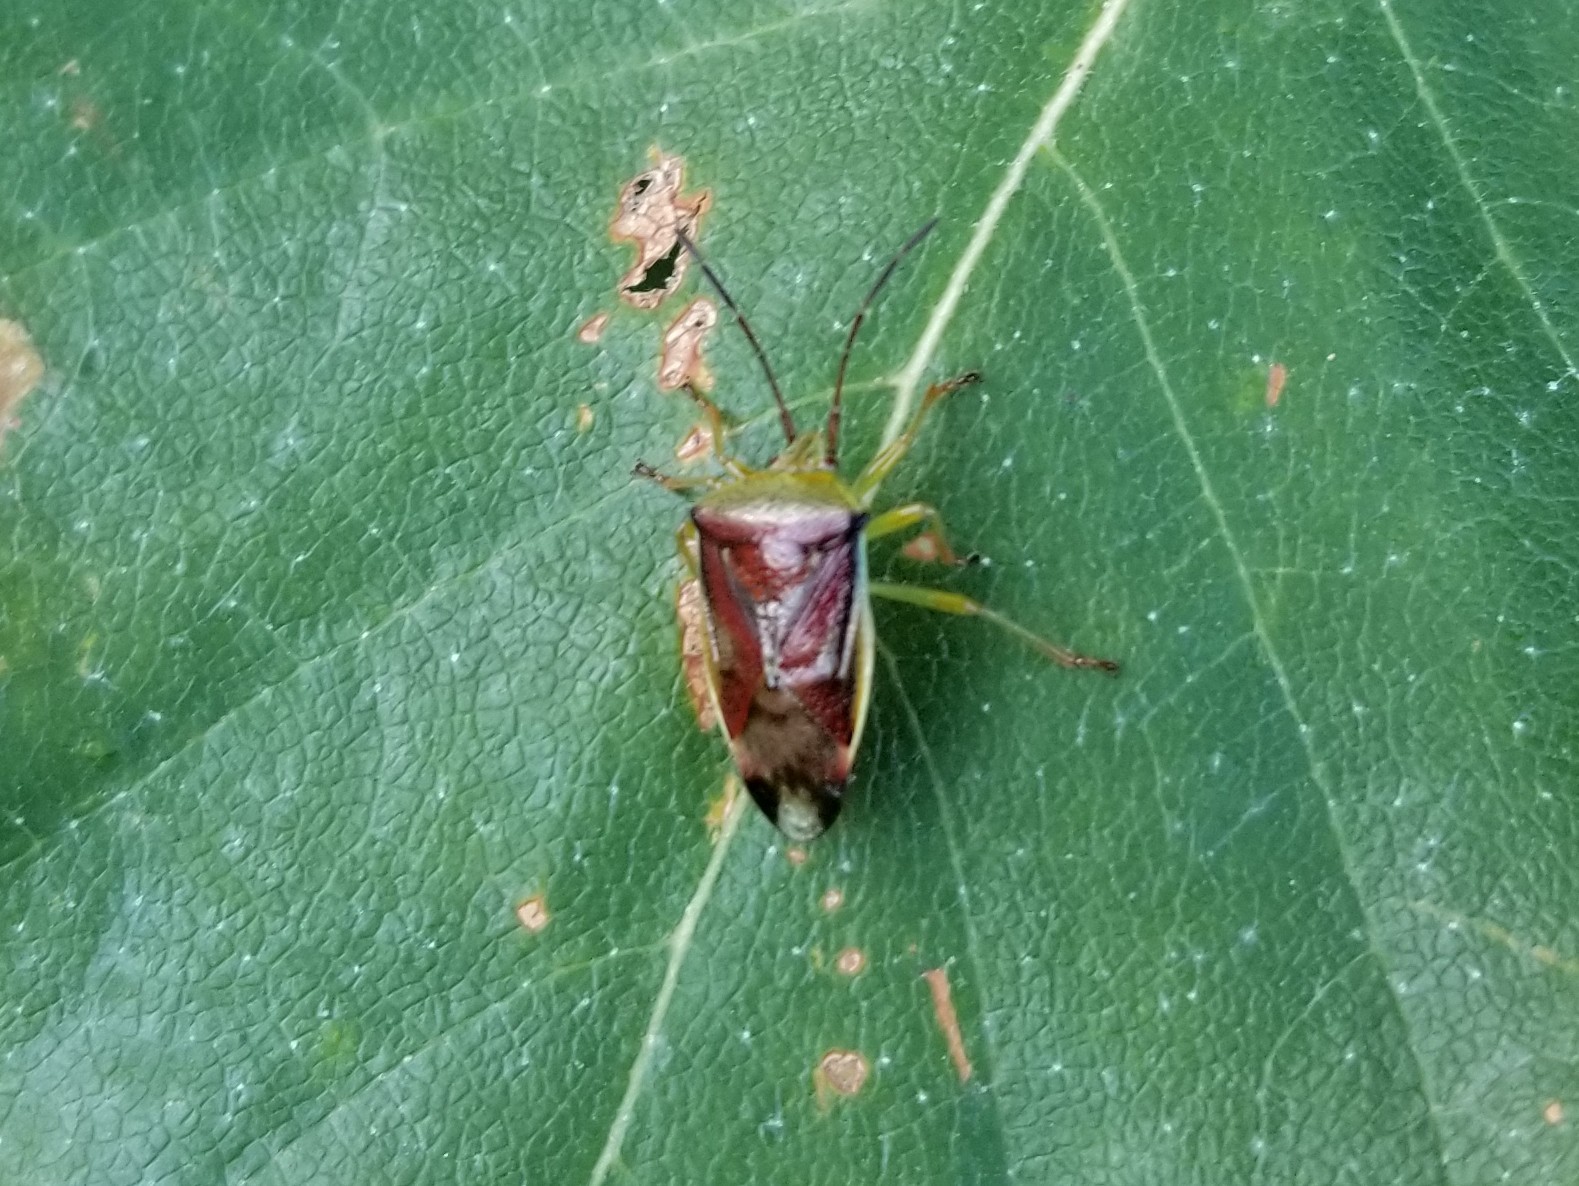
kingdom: Animalia
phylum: Arthropoda
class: Insecta
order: Hemiptera
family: Acanthosomatidae
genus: Elasmostethus
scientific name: Elasmostethus interstinctus
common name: Birch shieldbug
